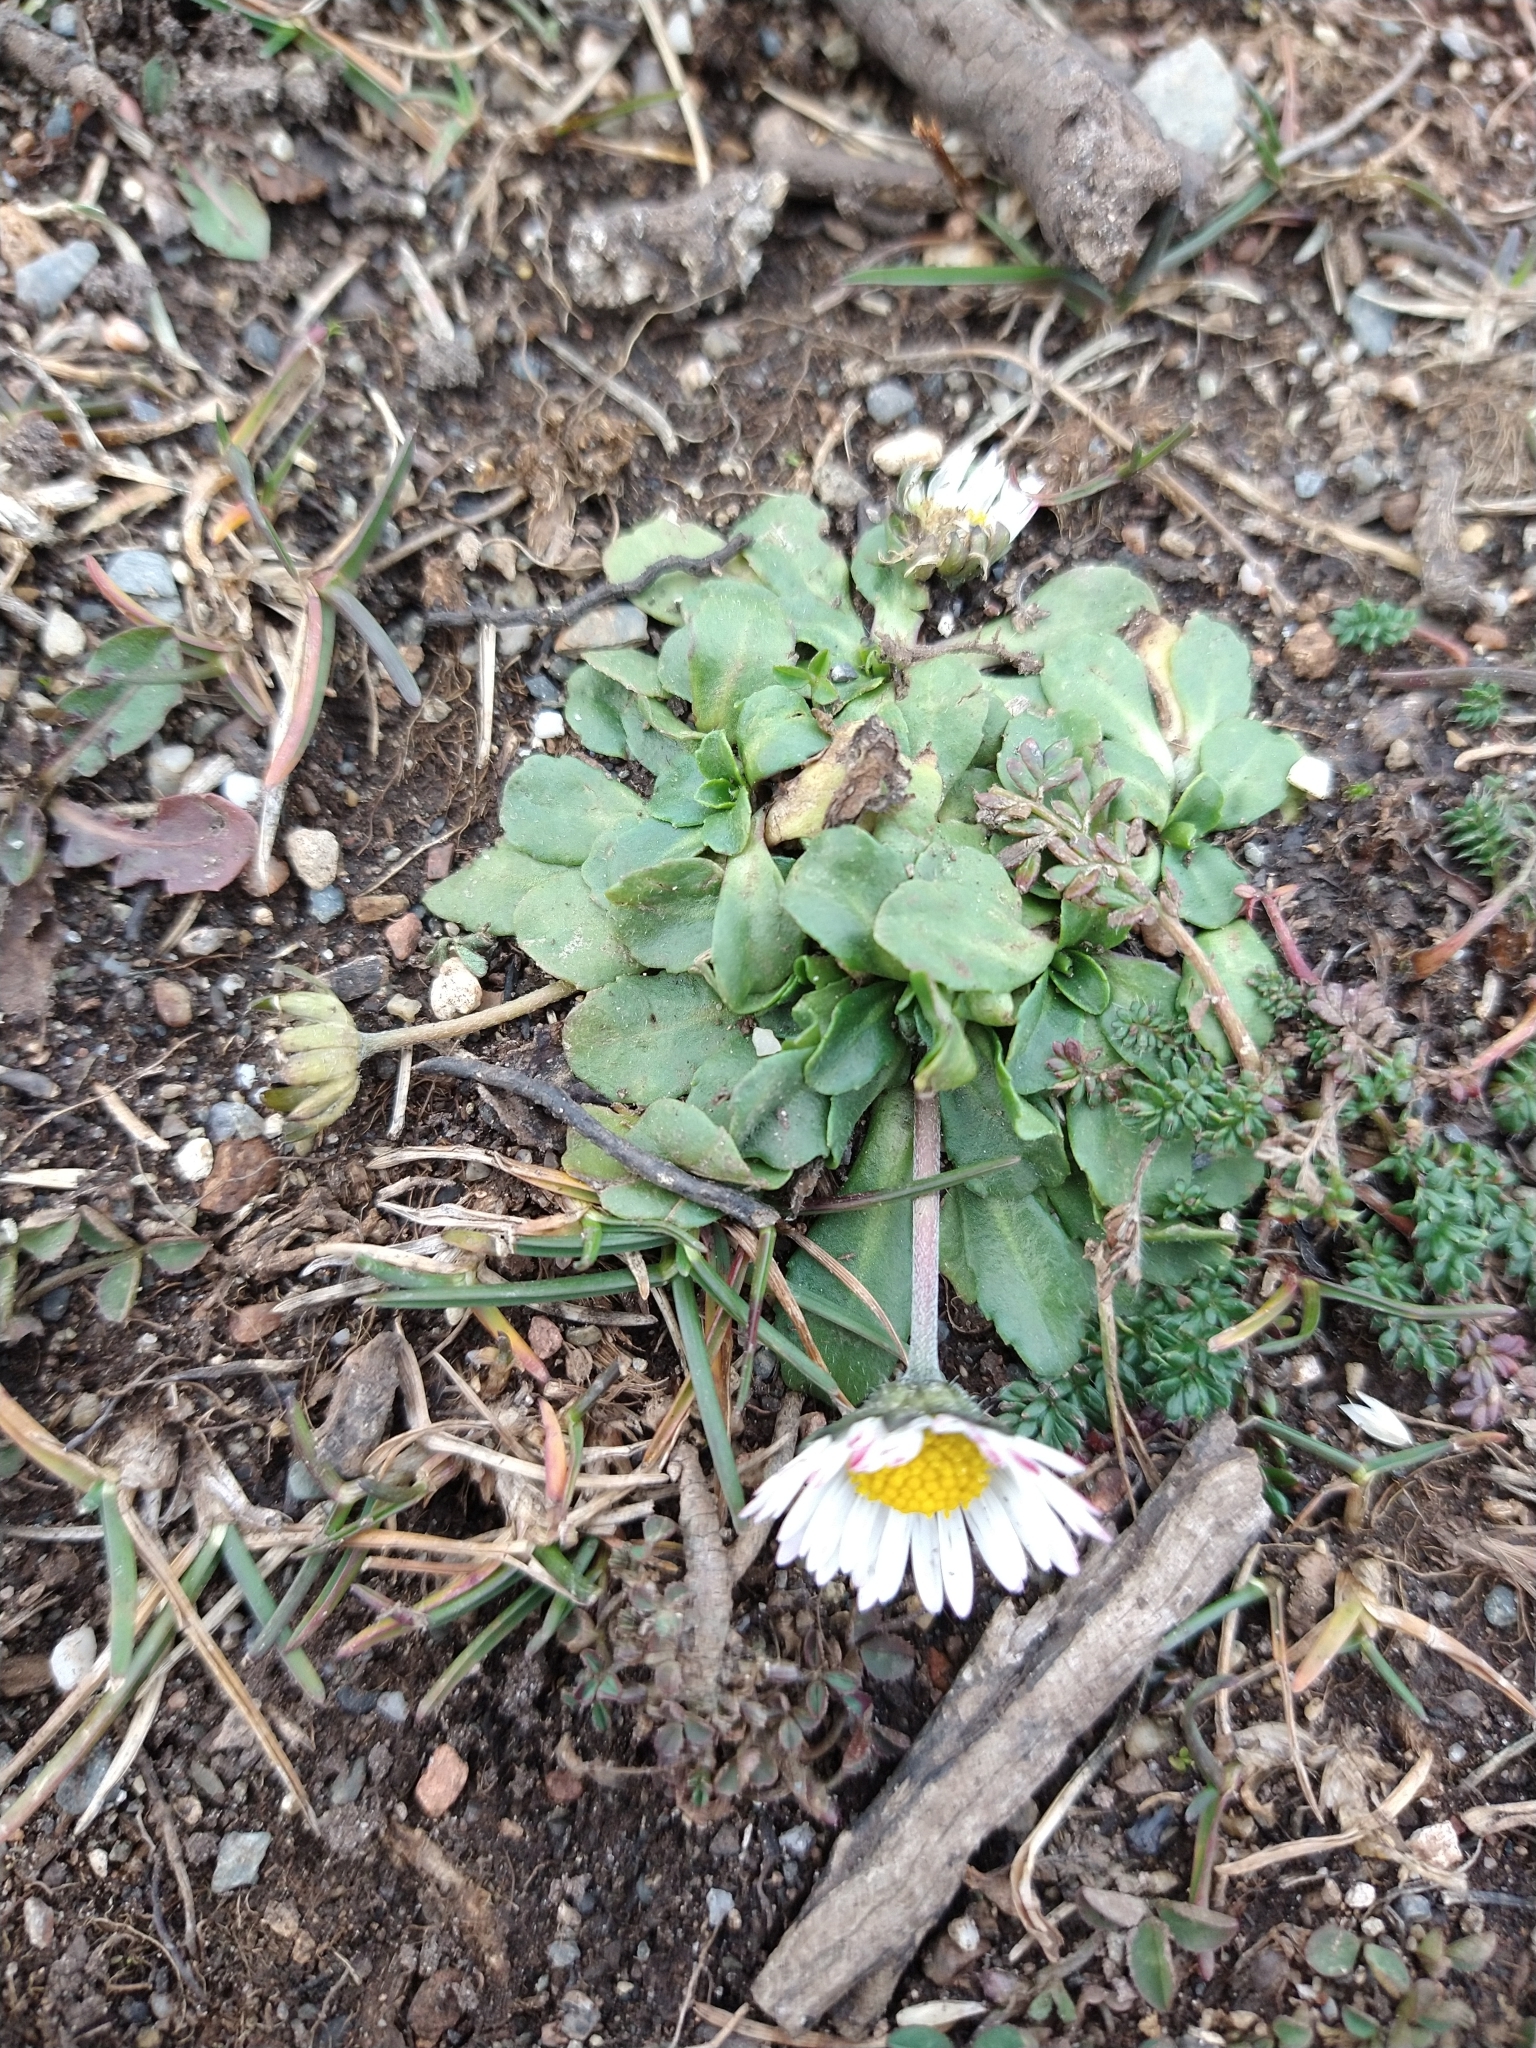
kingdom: Plantae
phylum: Tracheophyta
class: Magnoliopsida
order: Asterales
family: Asteraceae
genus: Bellis
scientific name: Bellis perennis
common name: Lawndaisy
